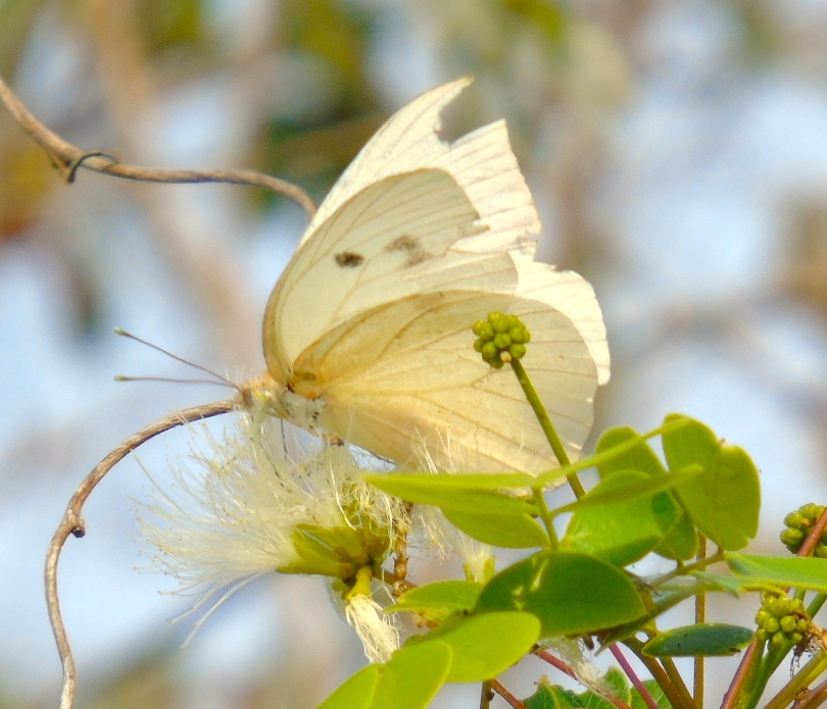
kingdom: Animalia
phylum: Arthropoda
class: Insecta
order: Lepidoptera
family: Pieridae
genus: Ganyra
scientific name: Ganyra josephina
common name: Giant white
